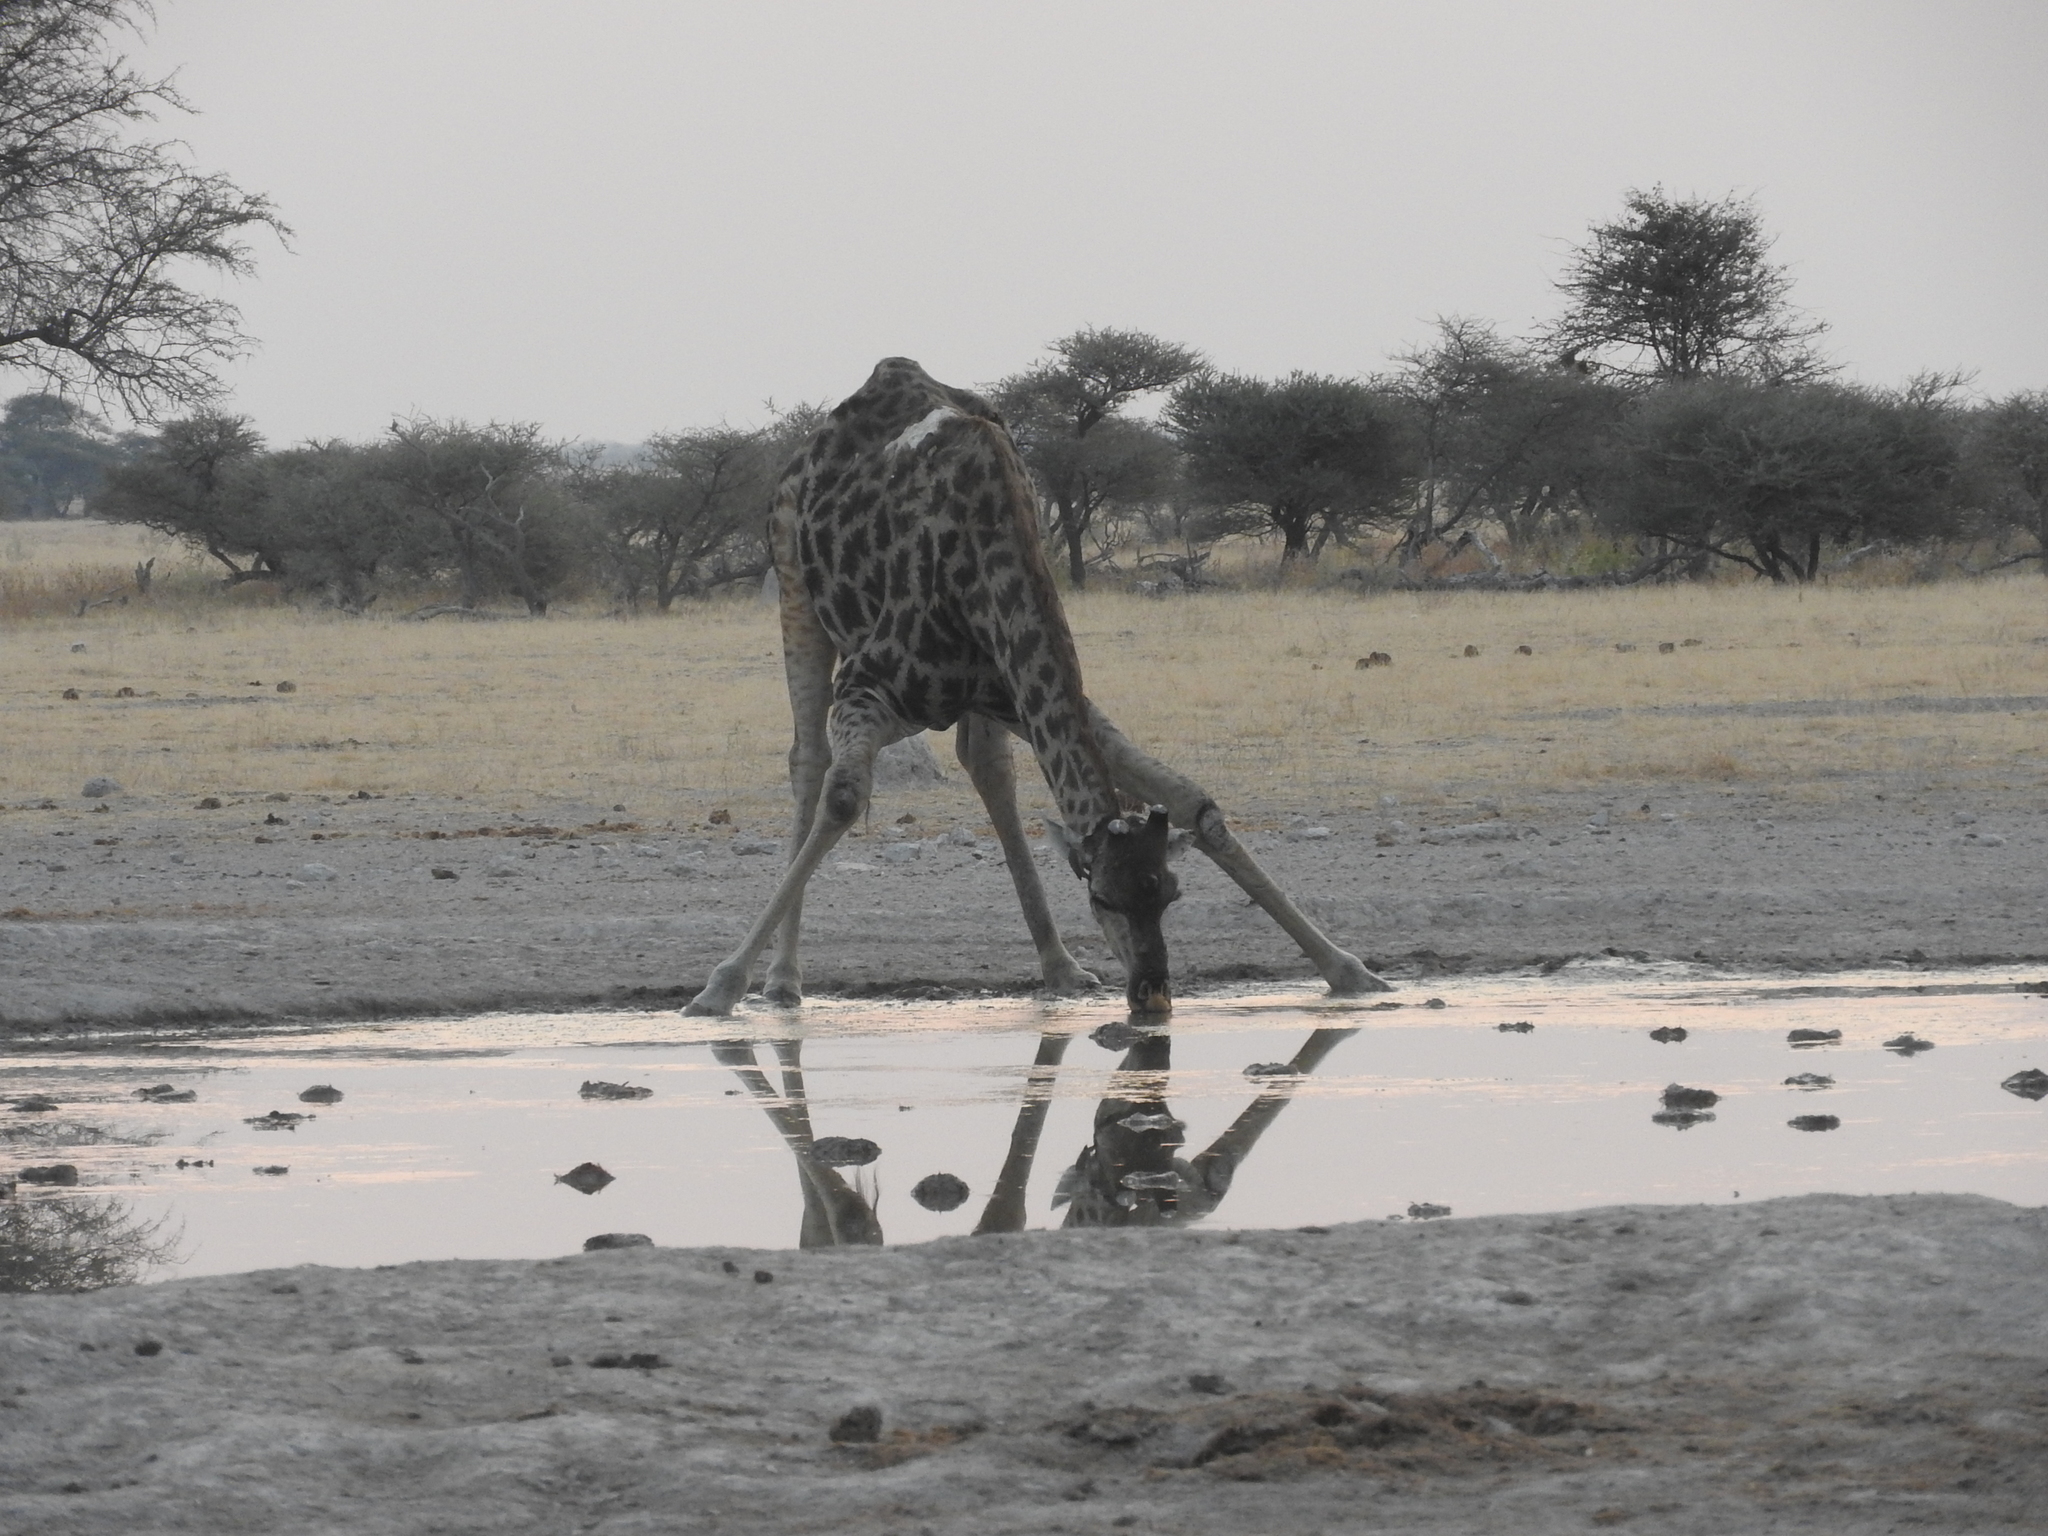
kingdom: Animalia
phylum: Chordata
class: Mammalia
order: Artiodactyla
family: Giraffidae
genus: Giraffa
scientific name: Giraffa giraffa
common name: Southern giraffe
